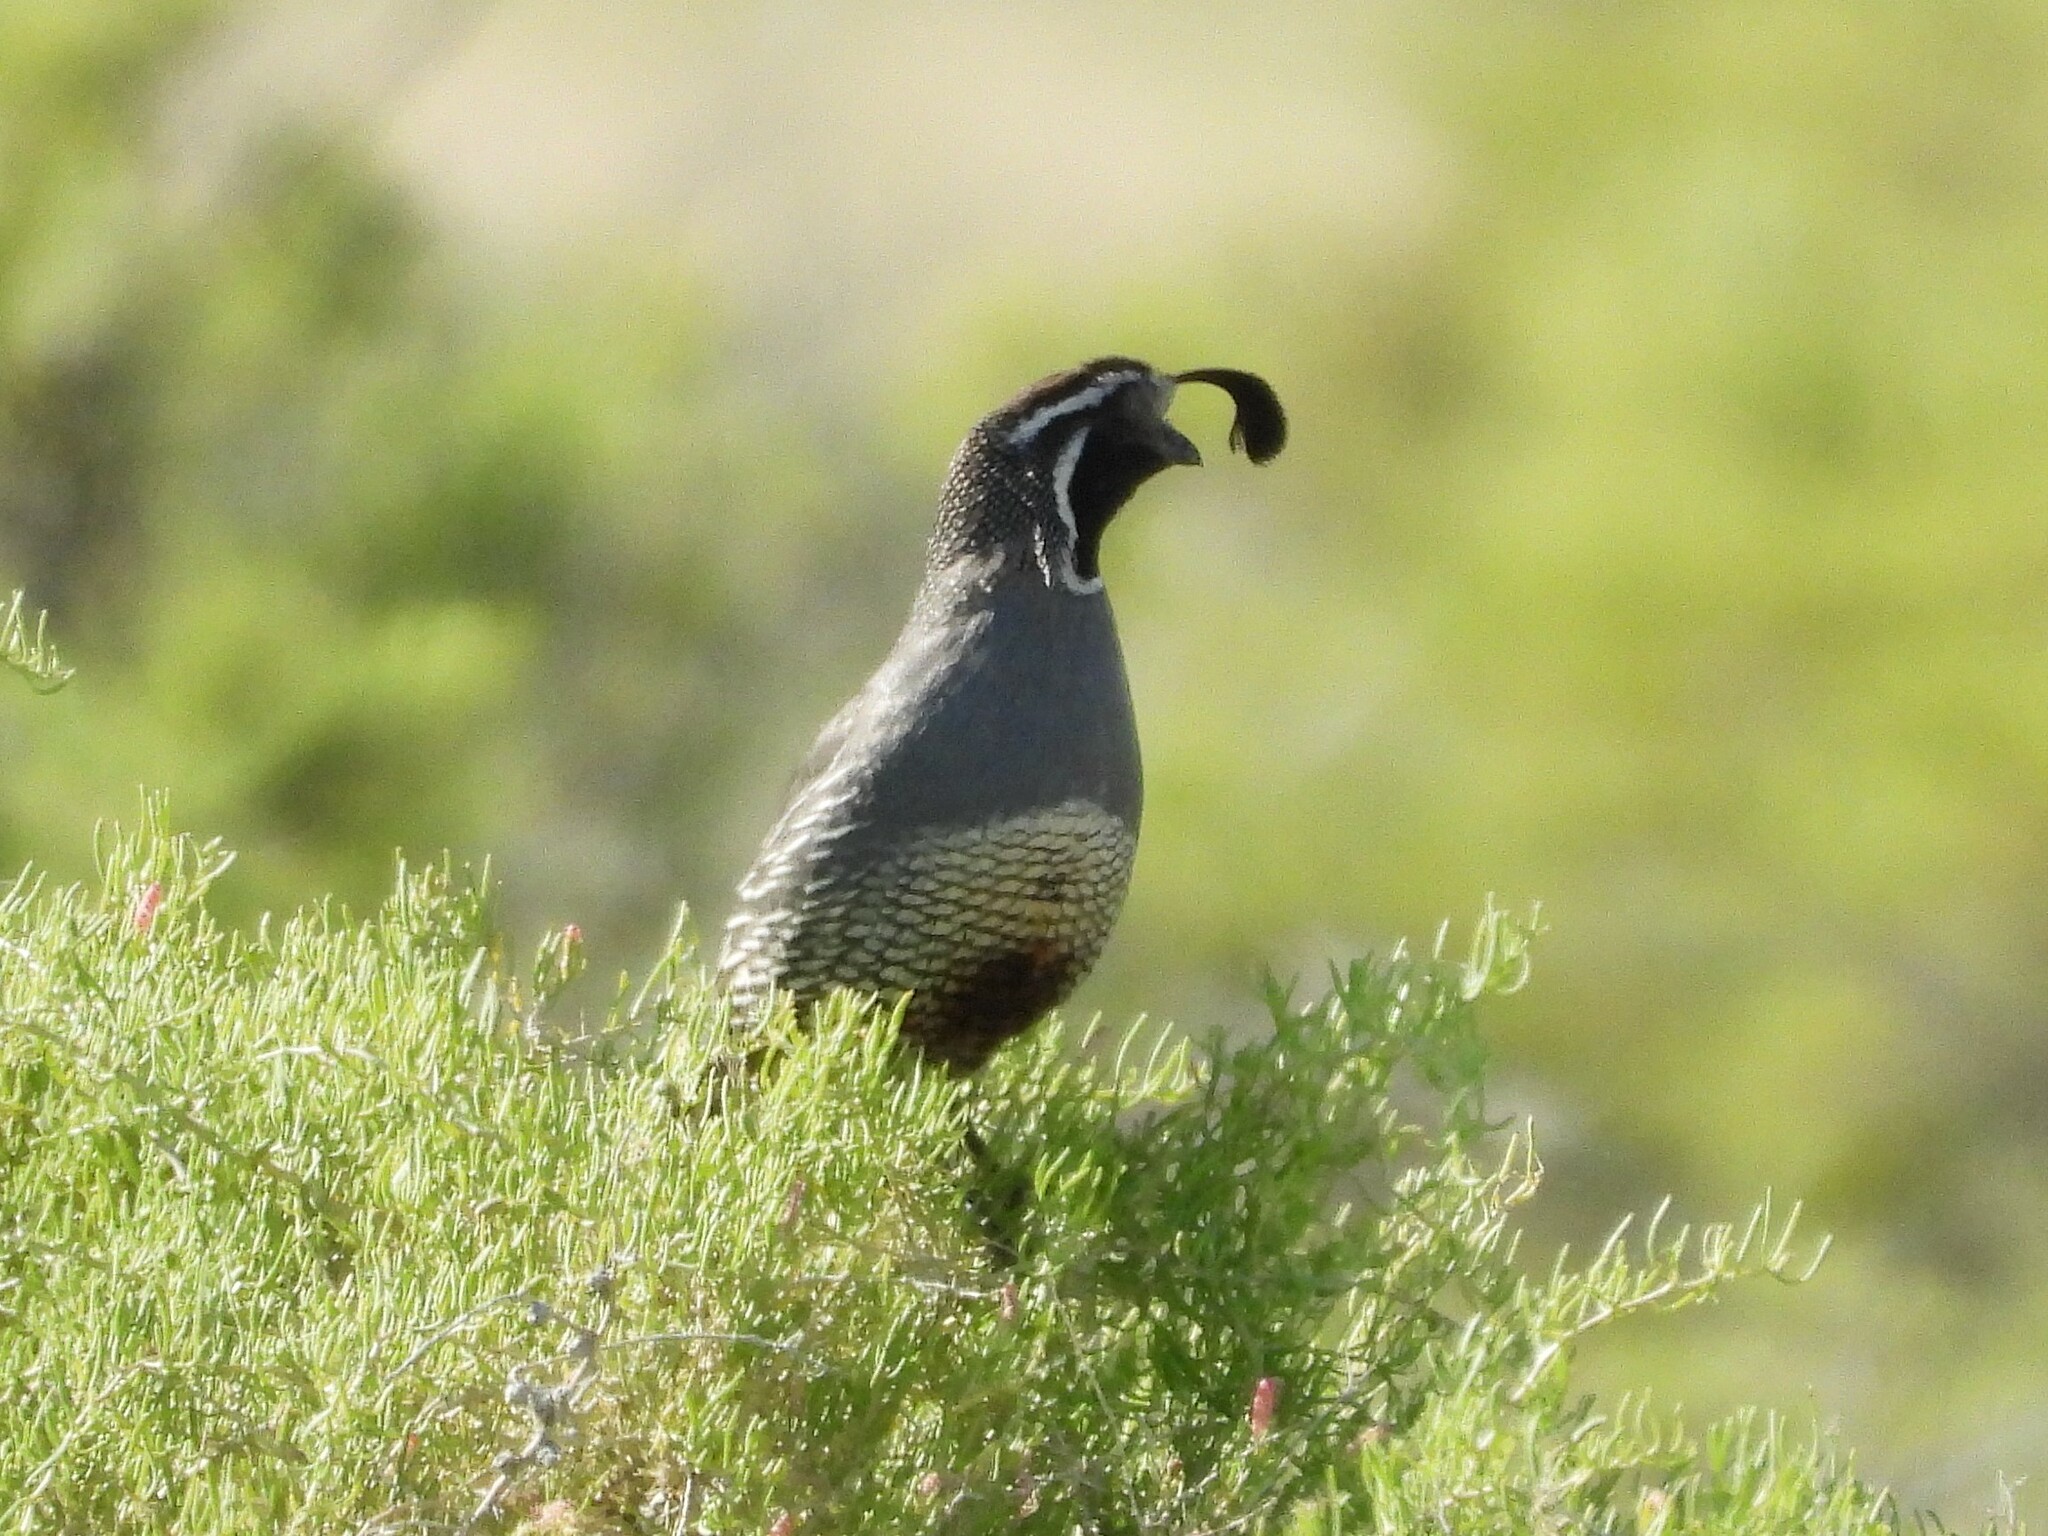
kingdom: Animalia
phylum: Chordata
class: Aves
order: Galliformes
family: Odontophoridae
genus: Callipepla
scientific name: Callipepla californica
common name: California quail
